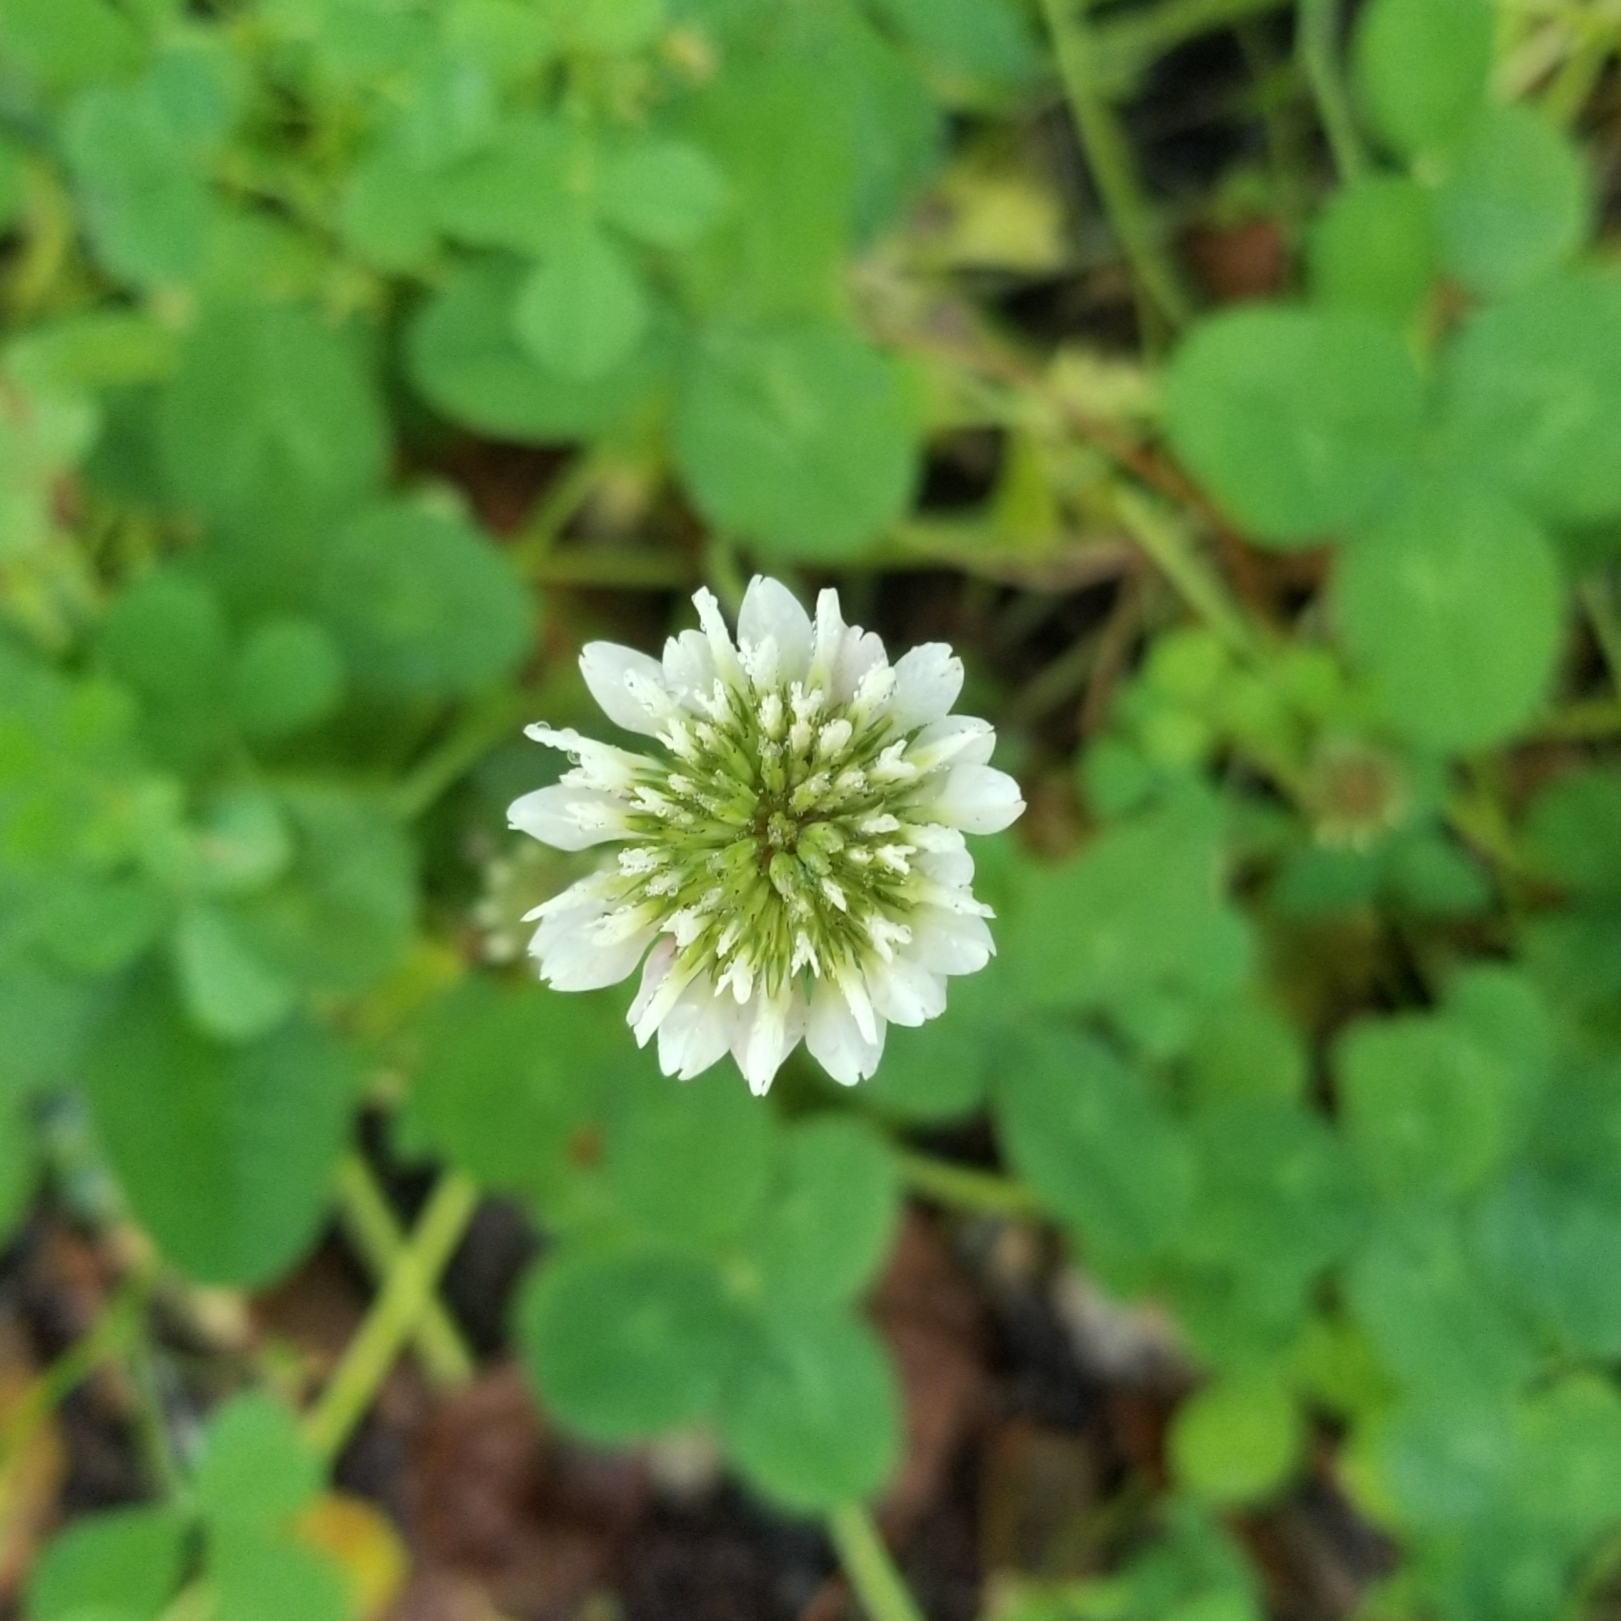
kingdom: Plantae
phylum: Tracheophyta
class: Magnoliopsida
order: Fabales
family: Fabaceae
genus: Trifolium
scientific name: Trifolium repens
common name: White clover
